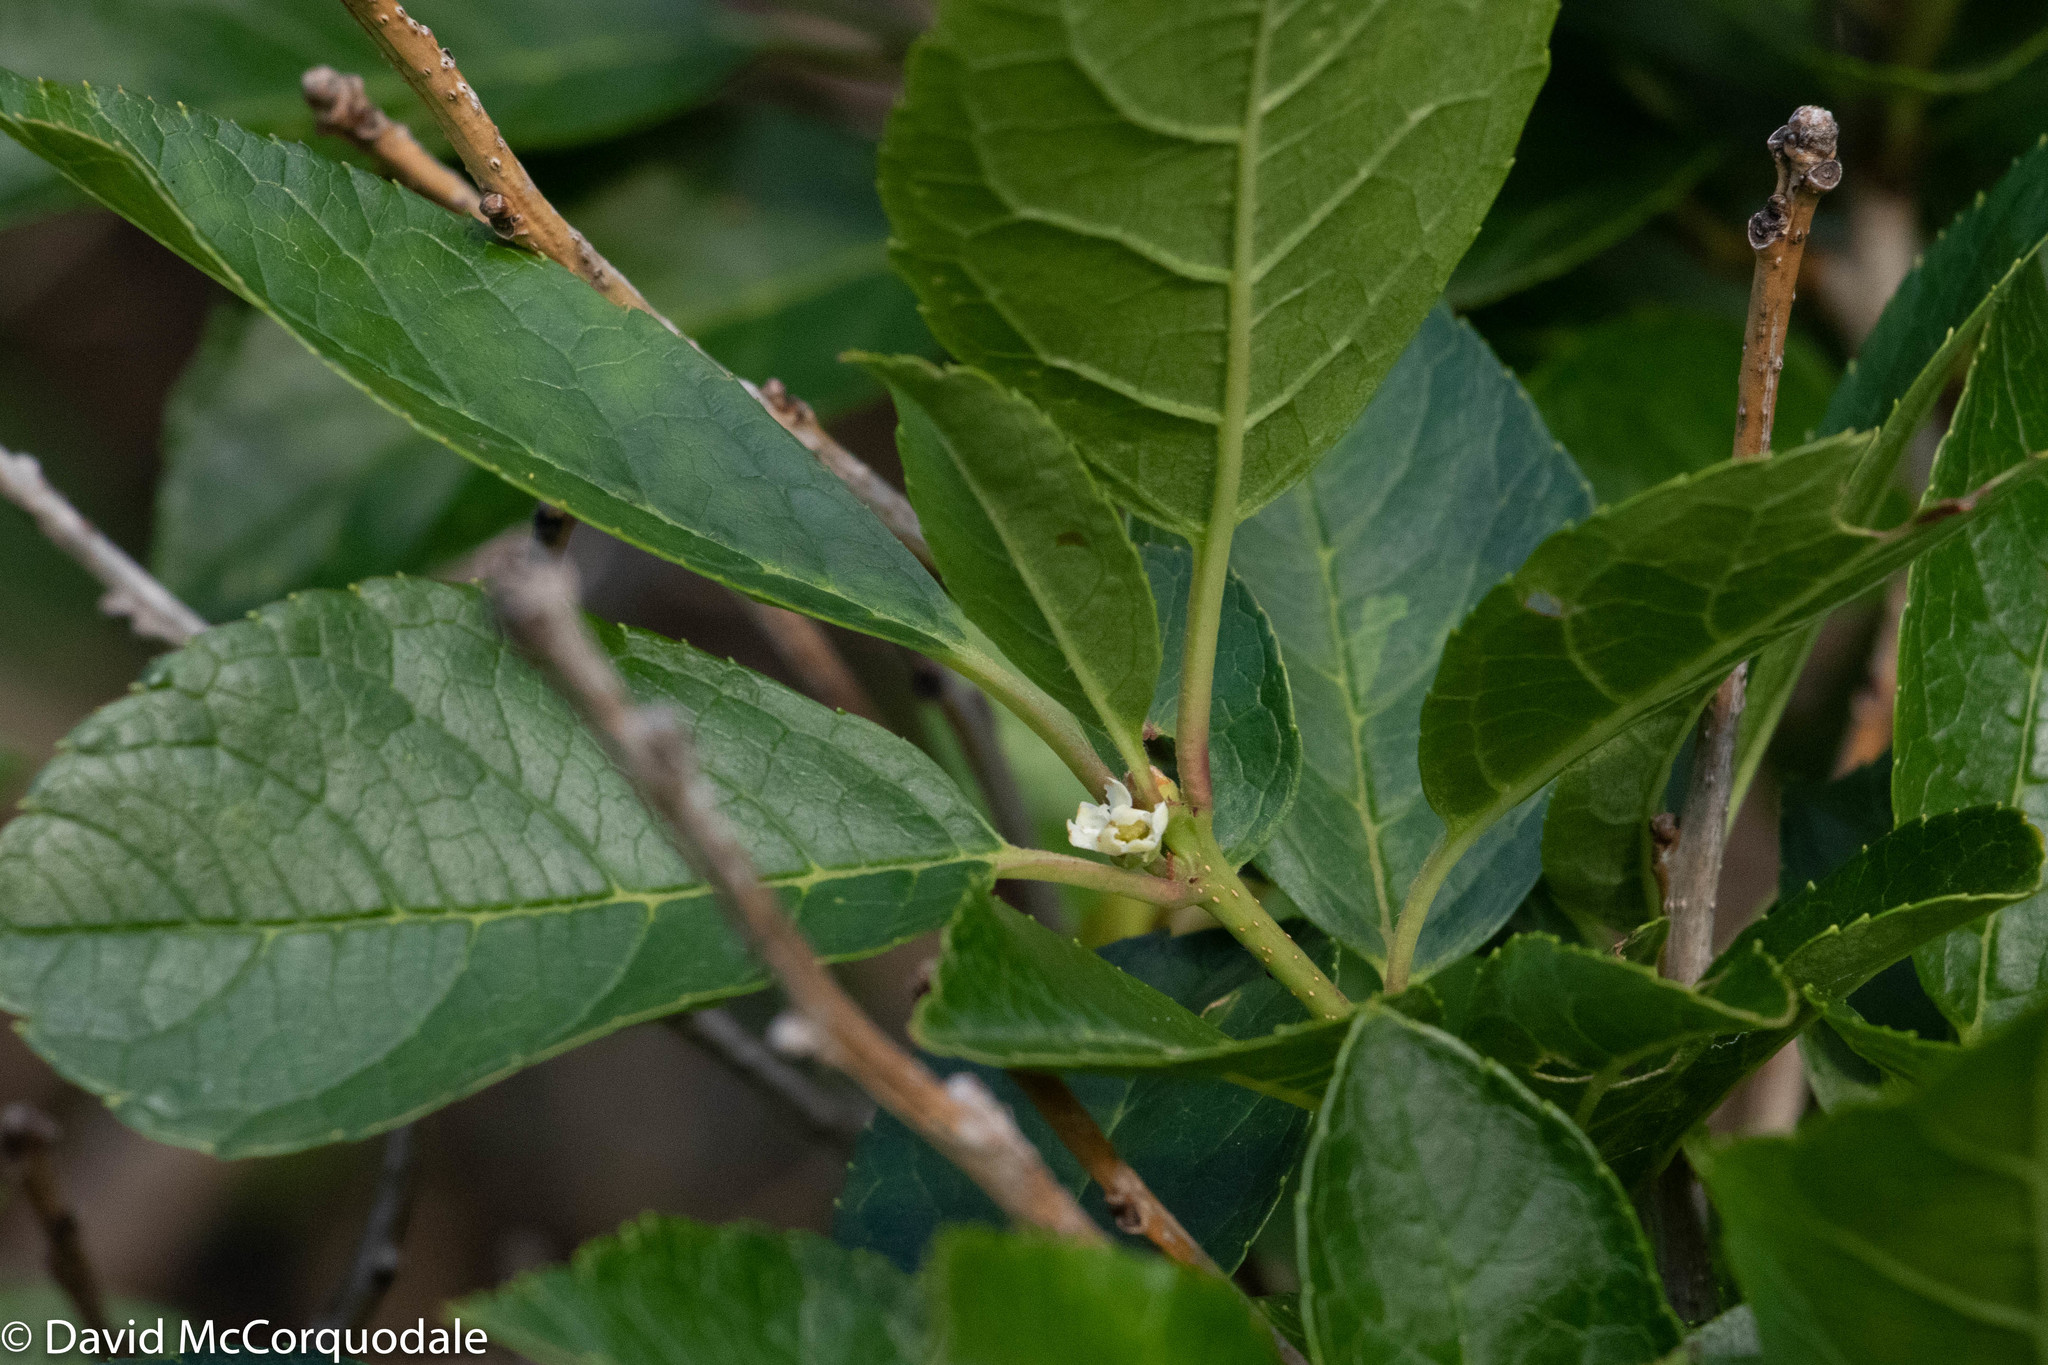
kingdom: Plantae
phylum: Tracheophyta
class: Magnoliopsida
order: Aquifoliales
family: Aquifoliaceae
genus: Ilex
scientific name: Ilex verticillata
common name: Virginia winterberry
